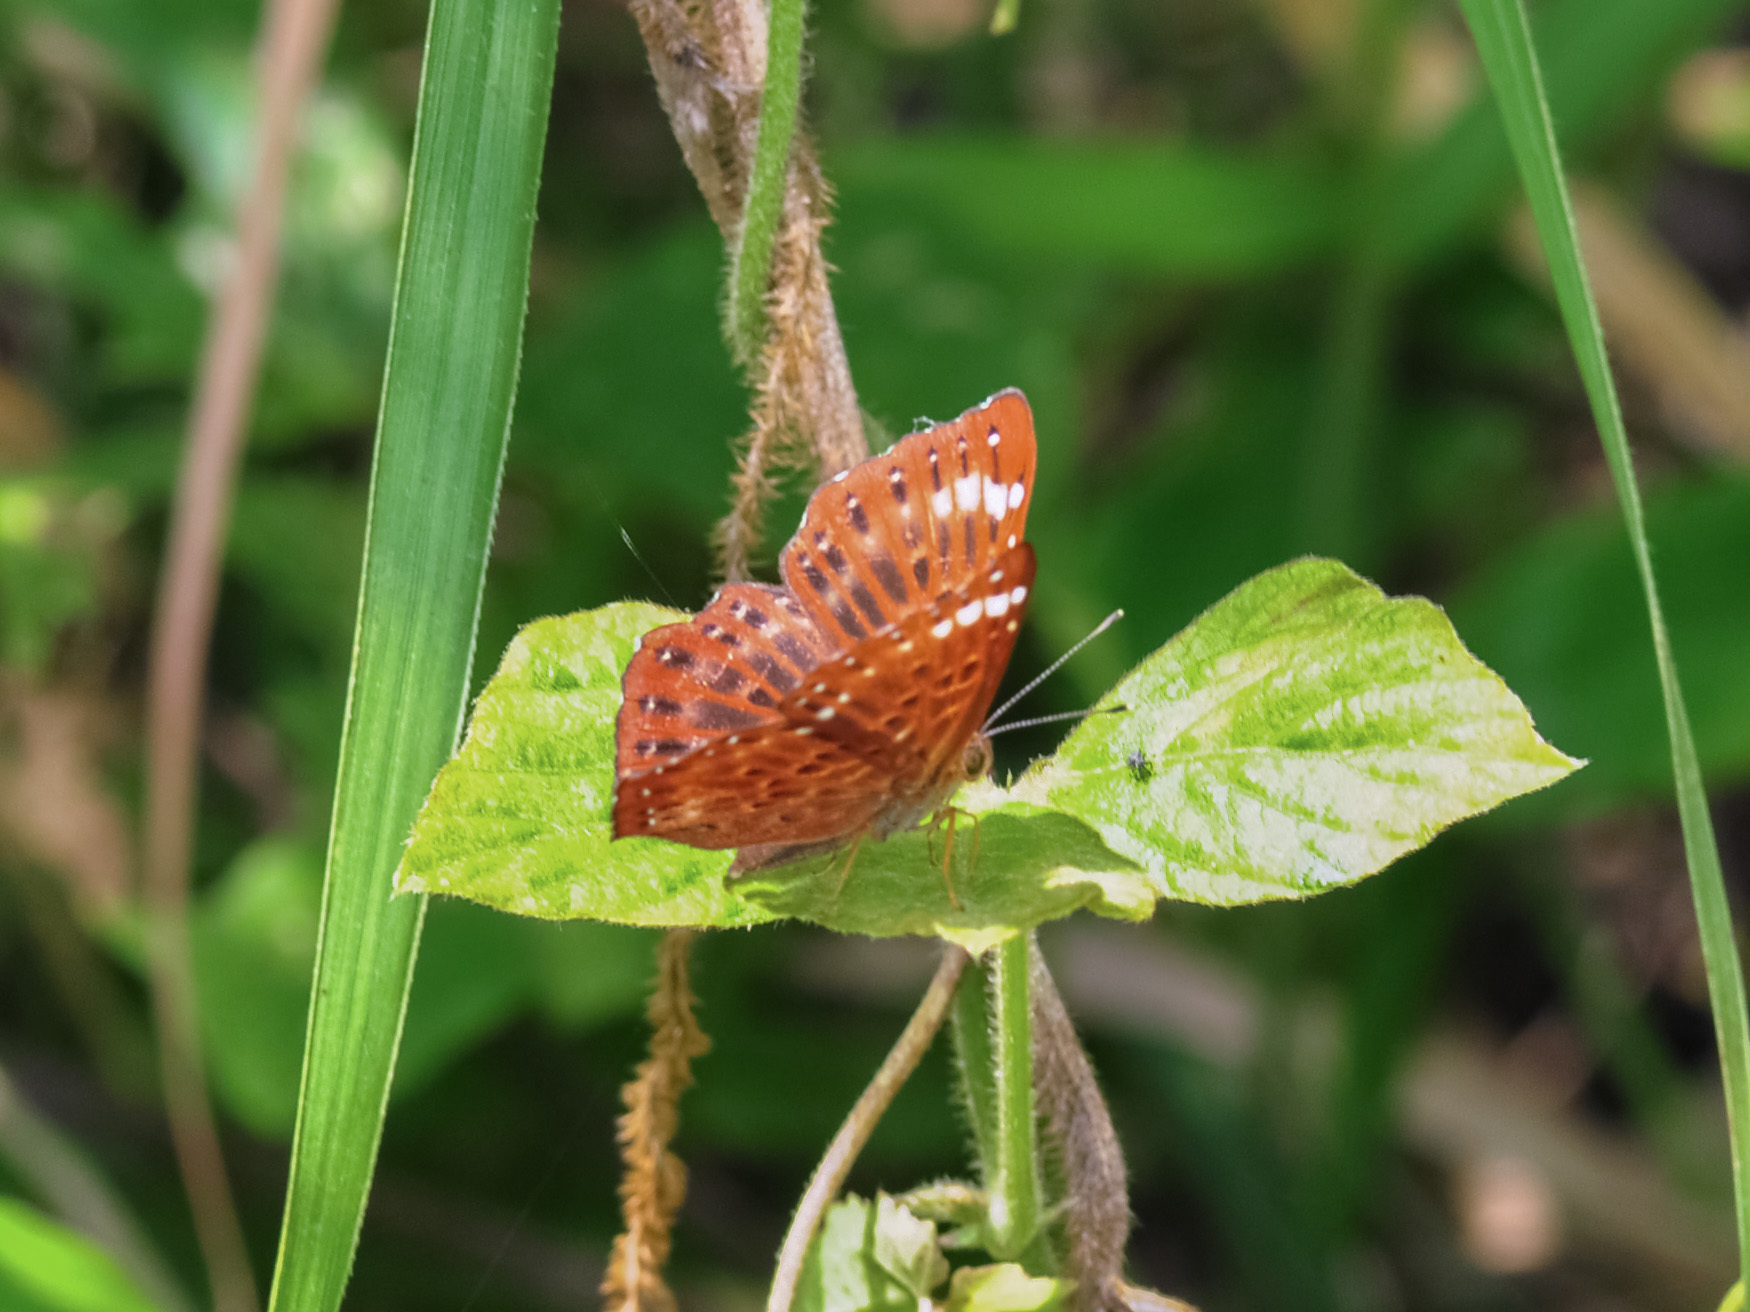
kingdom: Animalia
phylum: Arthropoda
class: Insecta
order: Lepidoptera
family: Riodinidae
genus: Zemeros
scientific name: Zemeros flegyas
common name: Punchinello
